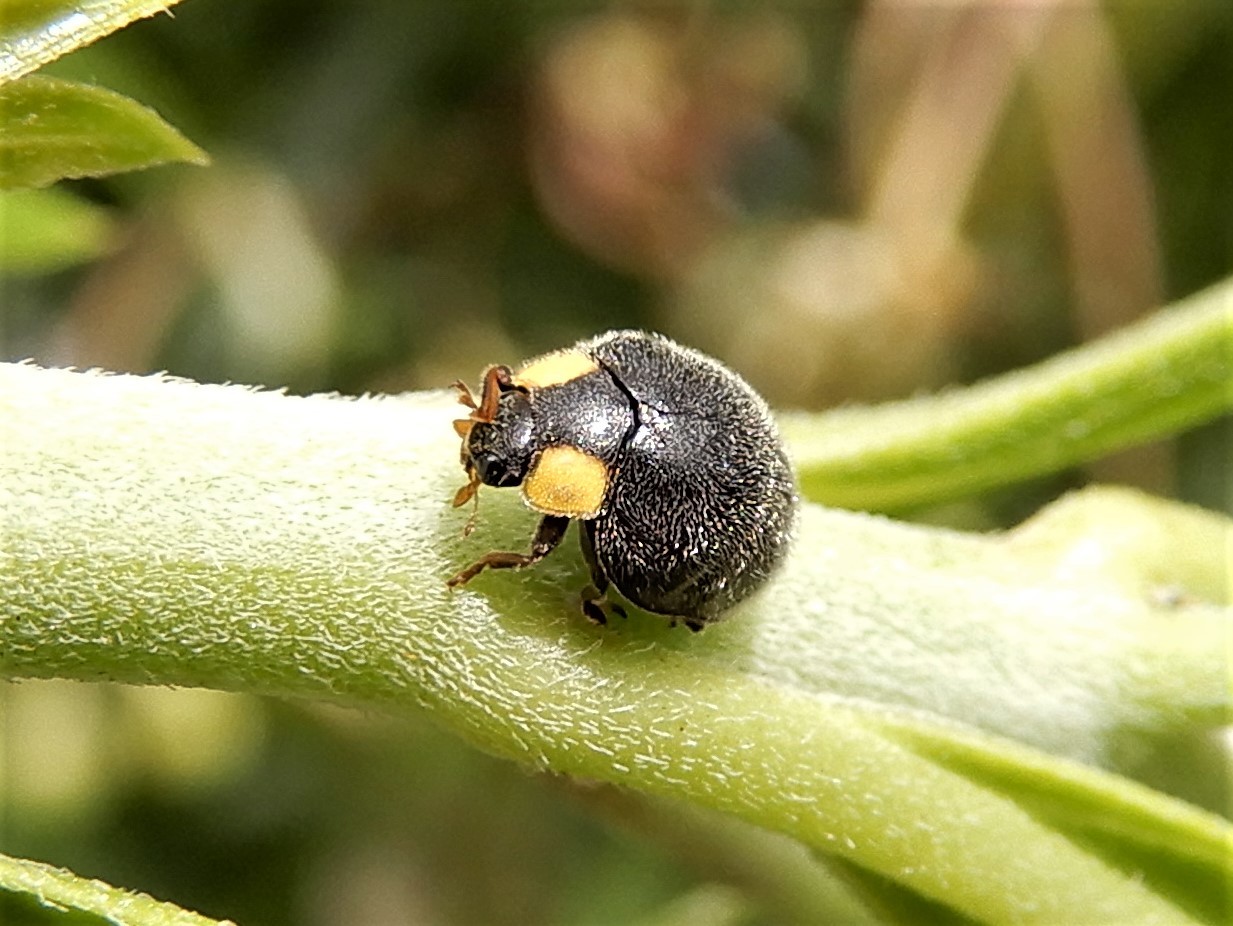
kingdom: Animalia
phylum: Arthropoda
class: Insecta
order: Coleoptera
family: Coccinellidae
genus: Scymnodes
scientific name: Scymnodes lividigaster
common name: Yellowshouldered lady beetle
